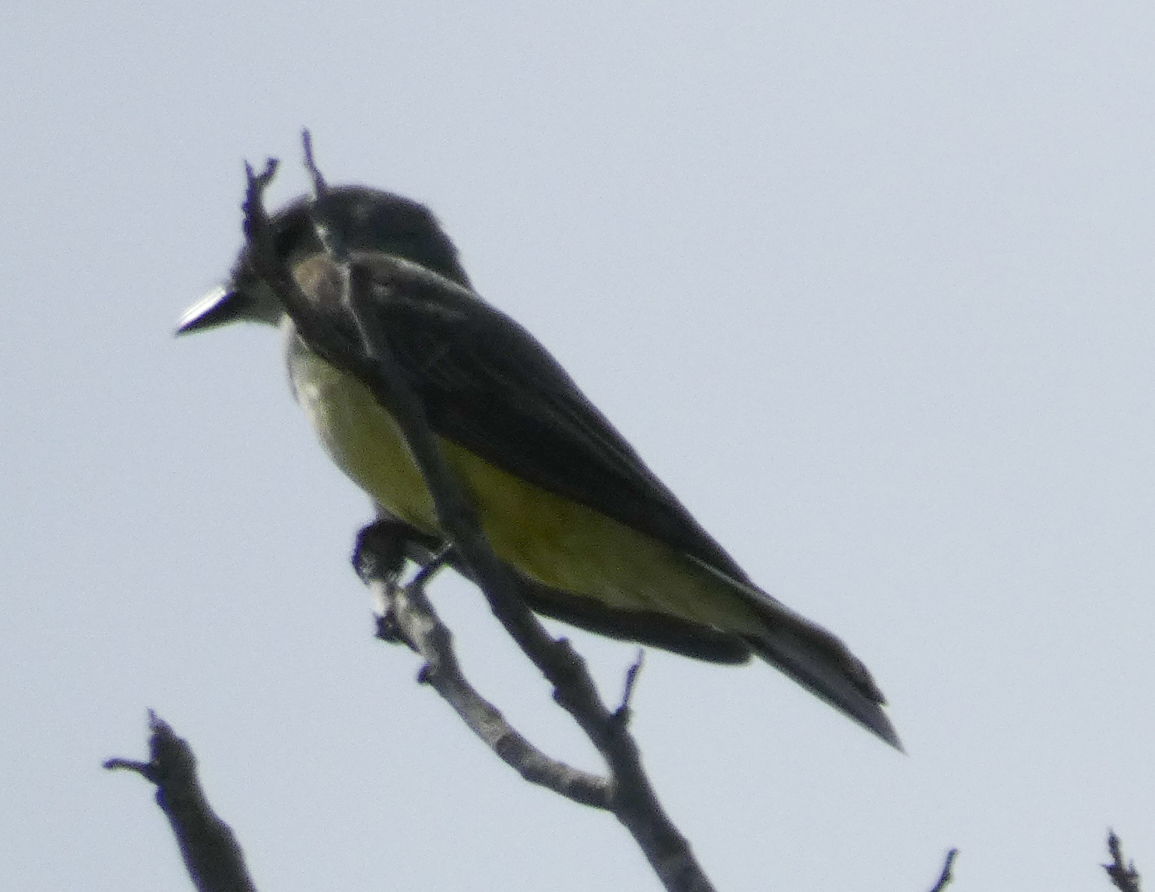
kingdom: Animalia
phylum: Chordata
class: Aves
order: Passeriformes
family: Tyrannidae
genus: Tyrannus
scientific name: Tyrannus verticalis
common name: Western kingbird
